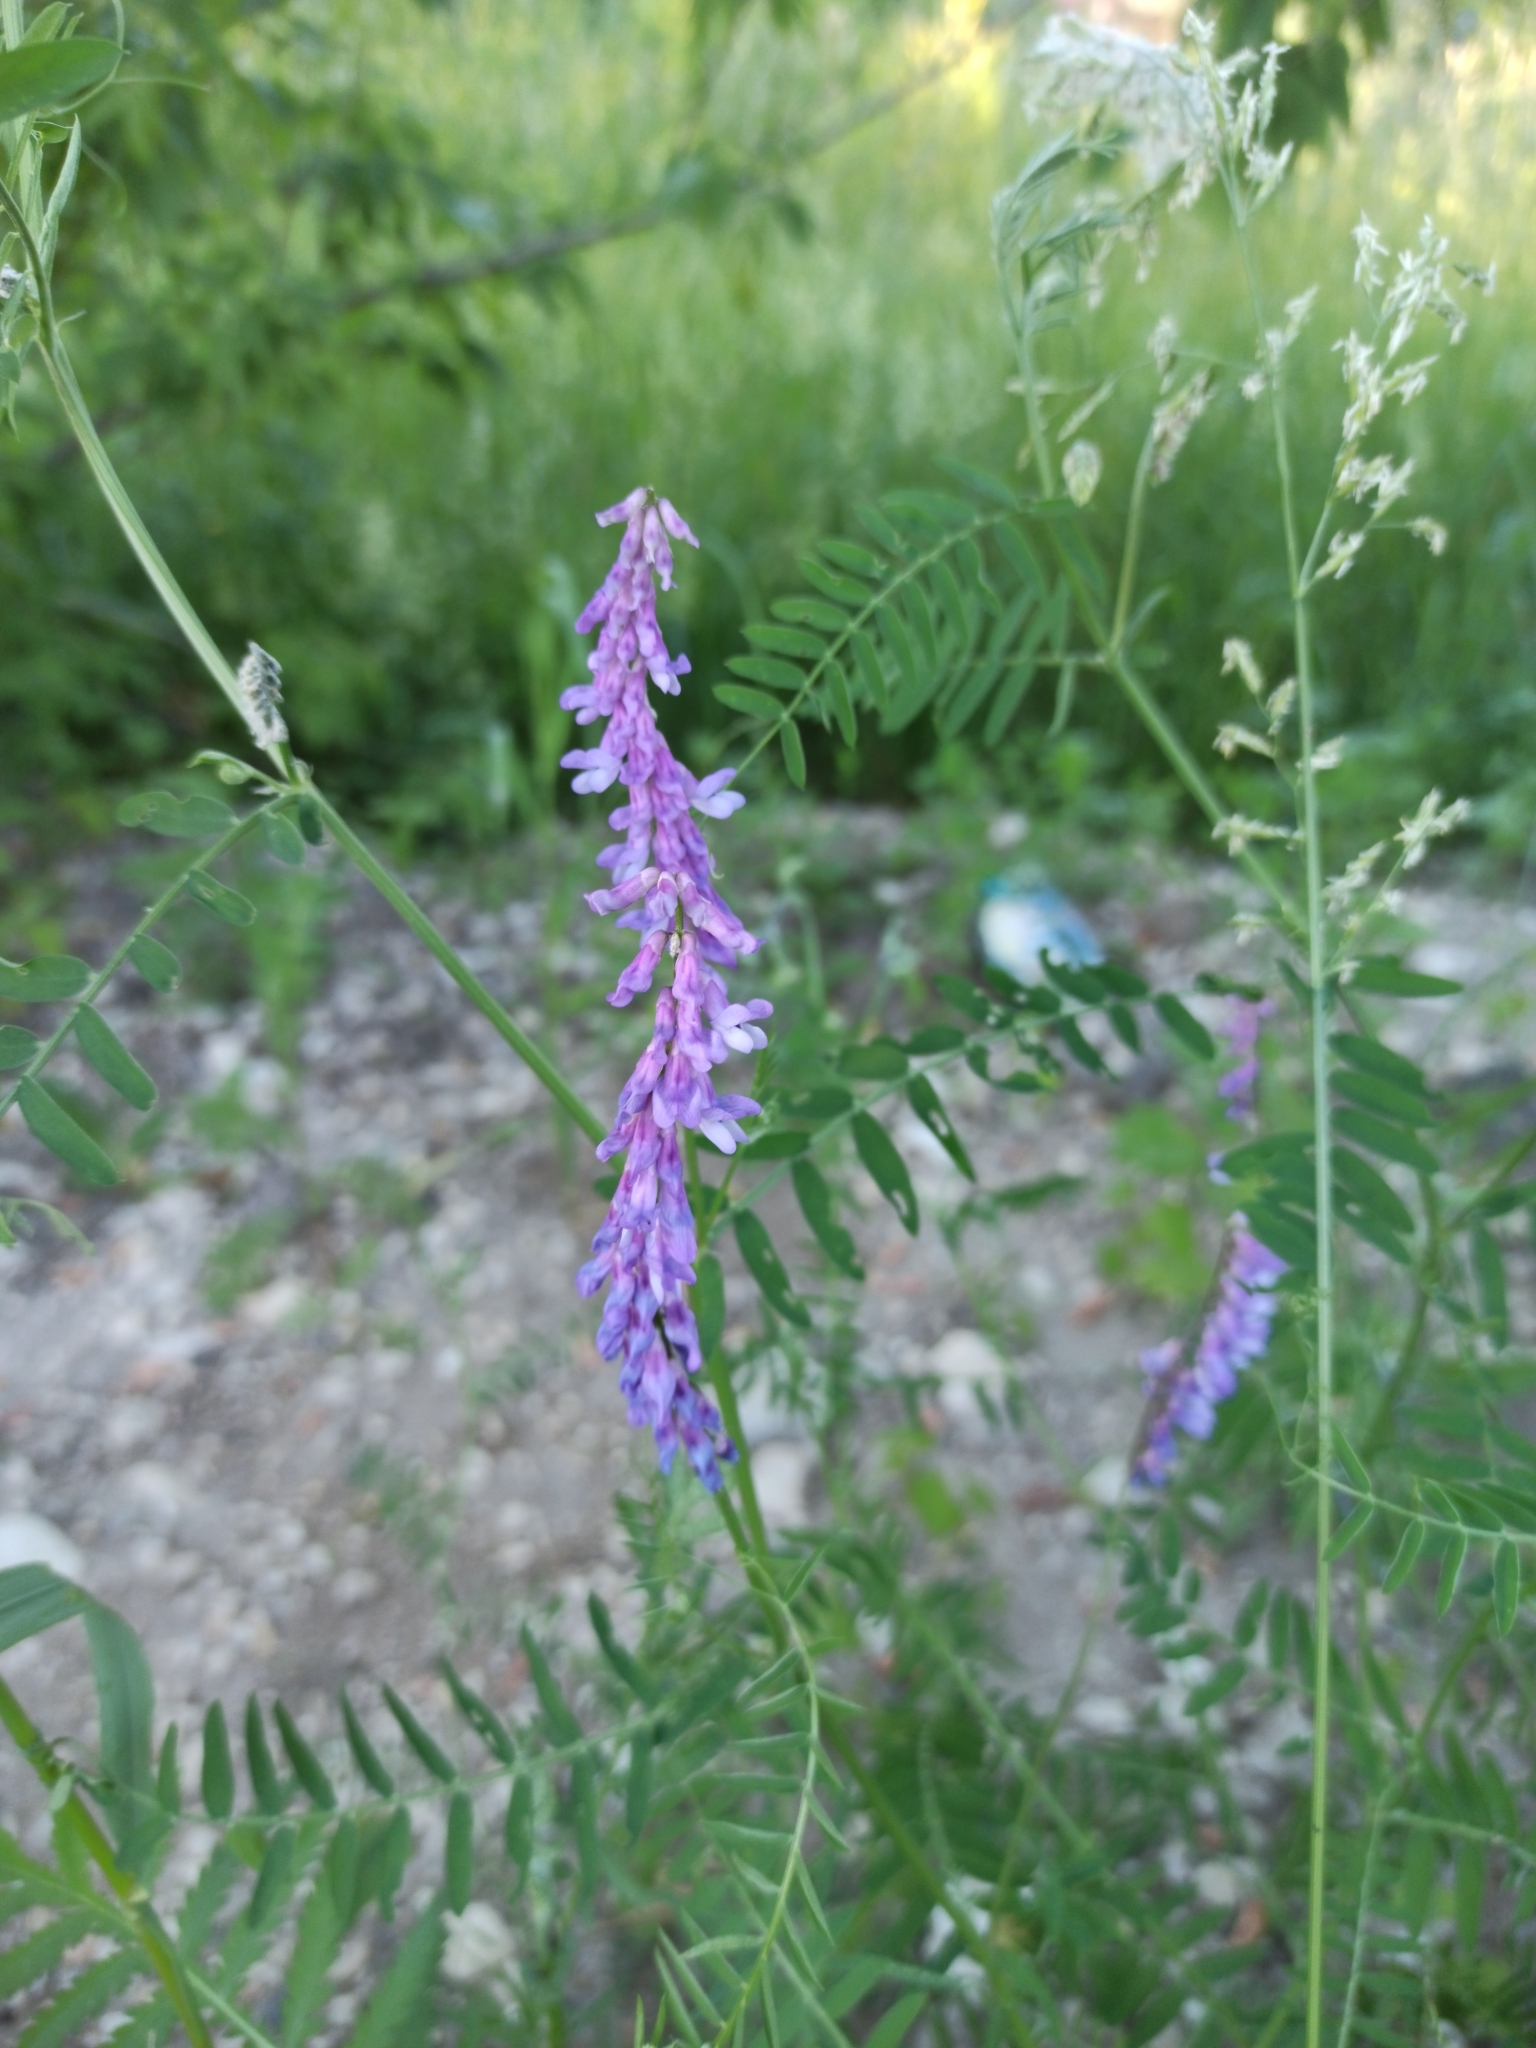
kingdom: Plantae
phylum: Tracheophyta
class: Magnoliopsida
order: Fabales
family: Fabaceae
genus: Vicia
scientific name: Vicia cracca
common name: Bird vetch
